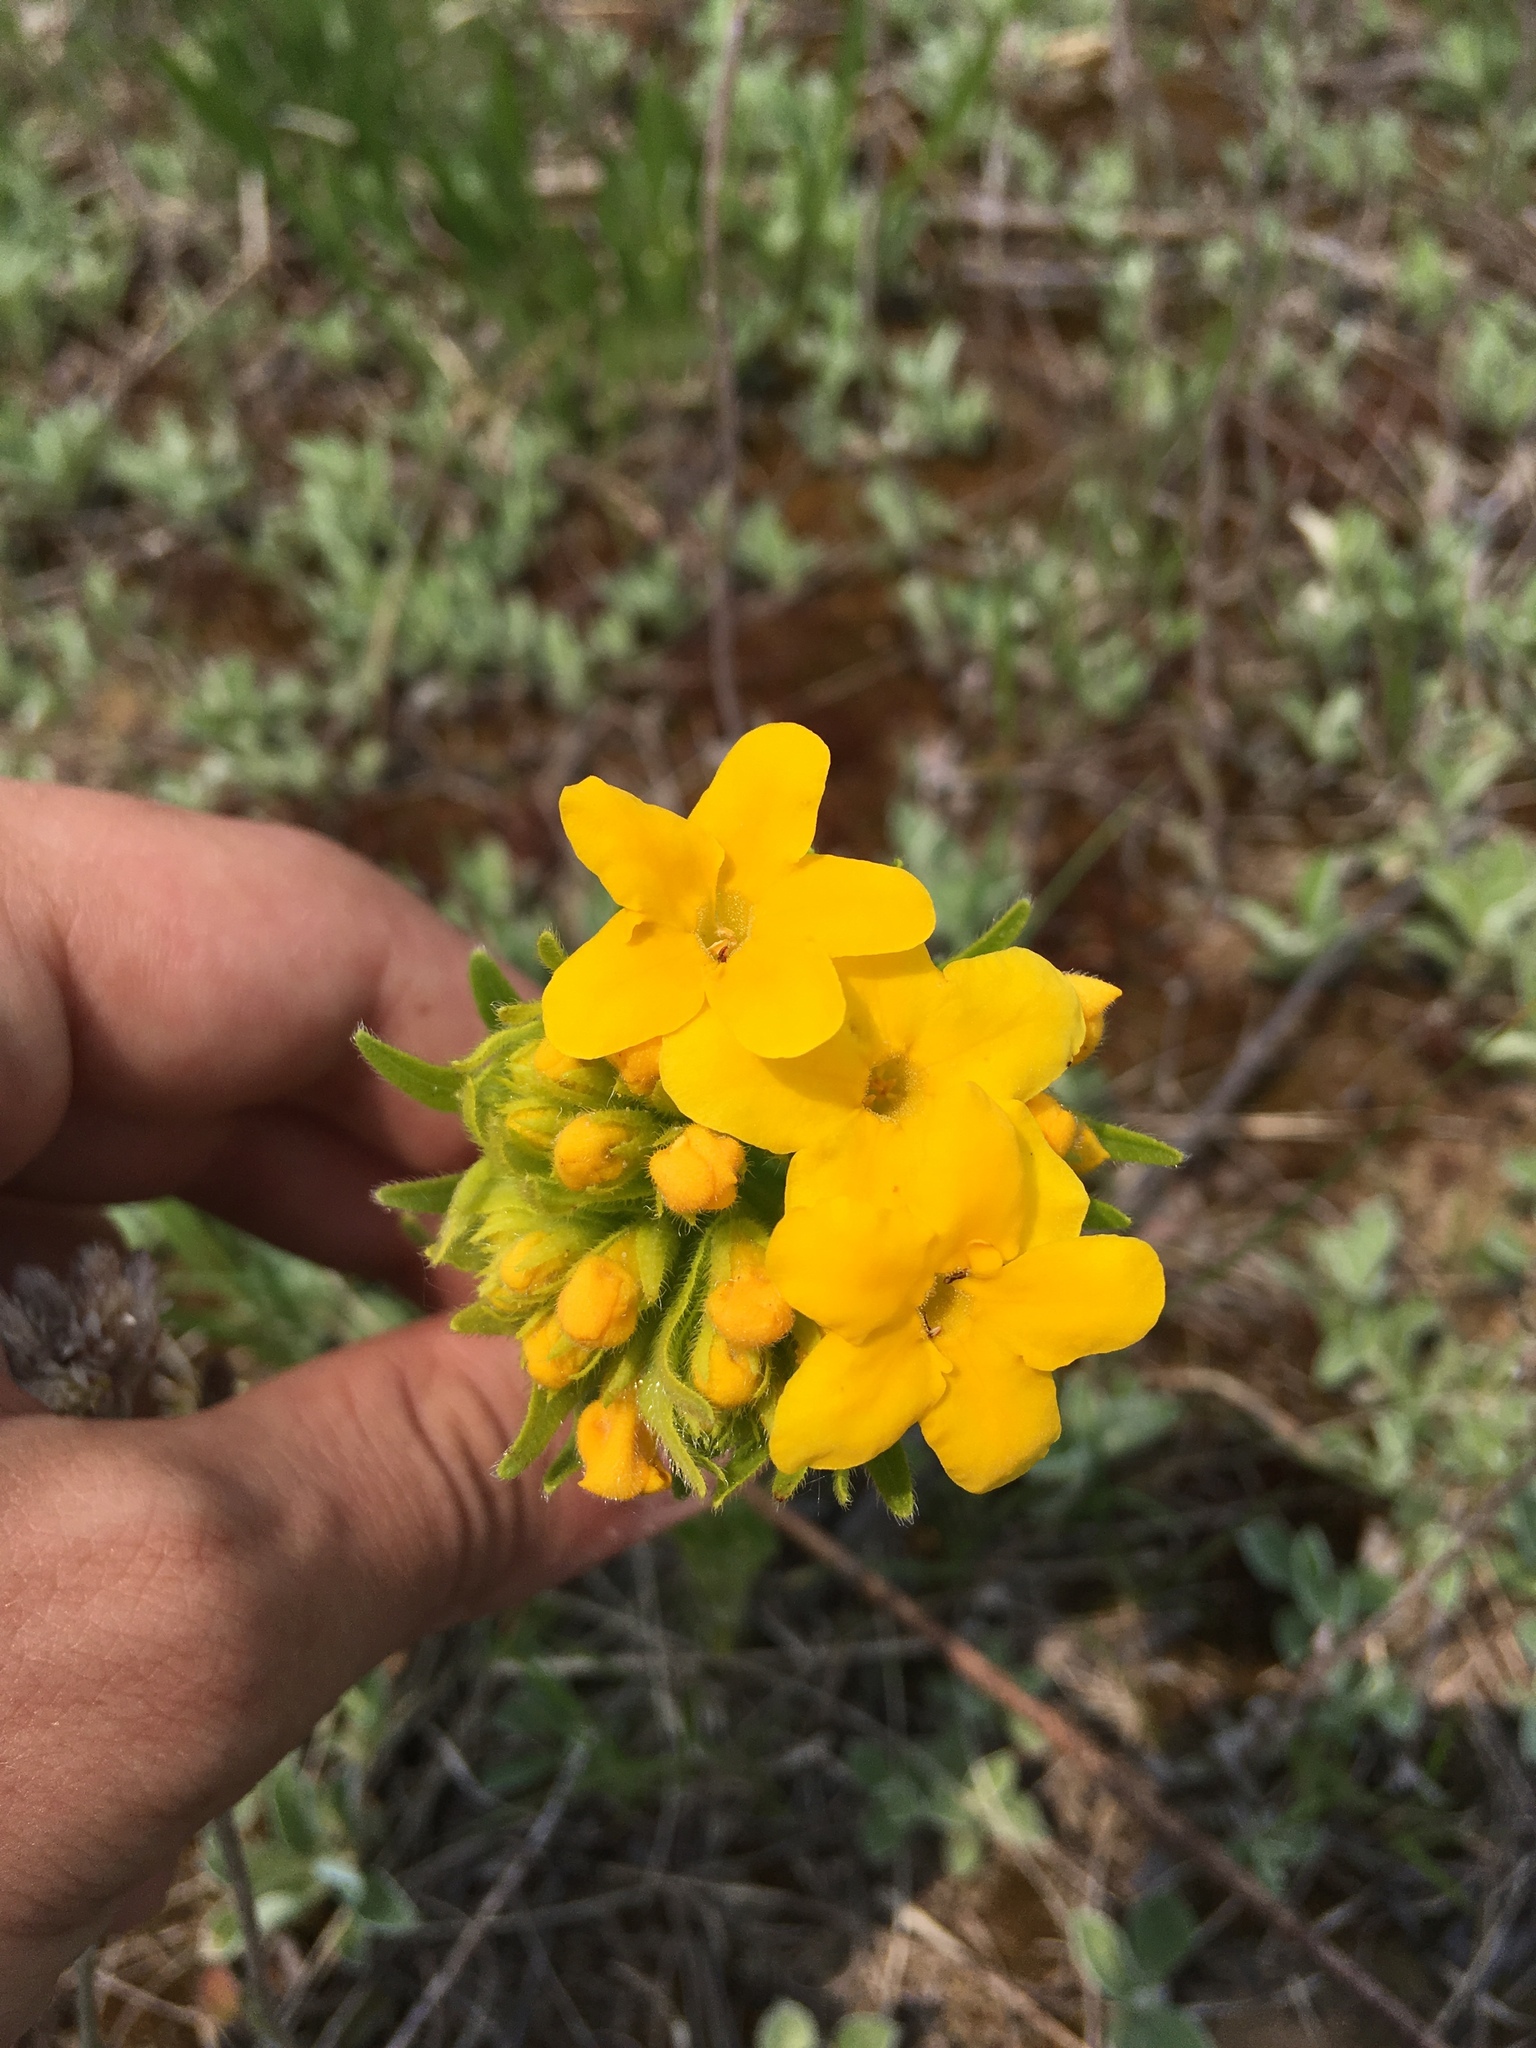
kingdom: Plantae
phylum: Tracheophyta
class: Magnoliopsida
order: Boraginales
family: Boraginaceae
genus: Lithospermum
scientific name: Lithospermum canescens
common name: Hoary puccoon
